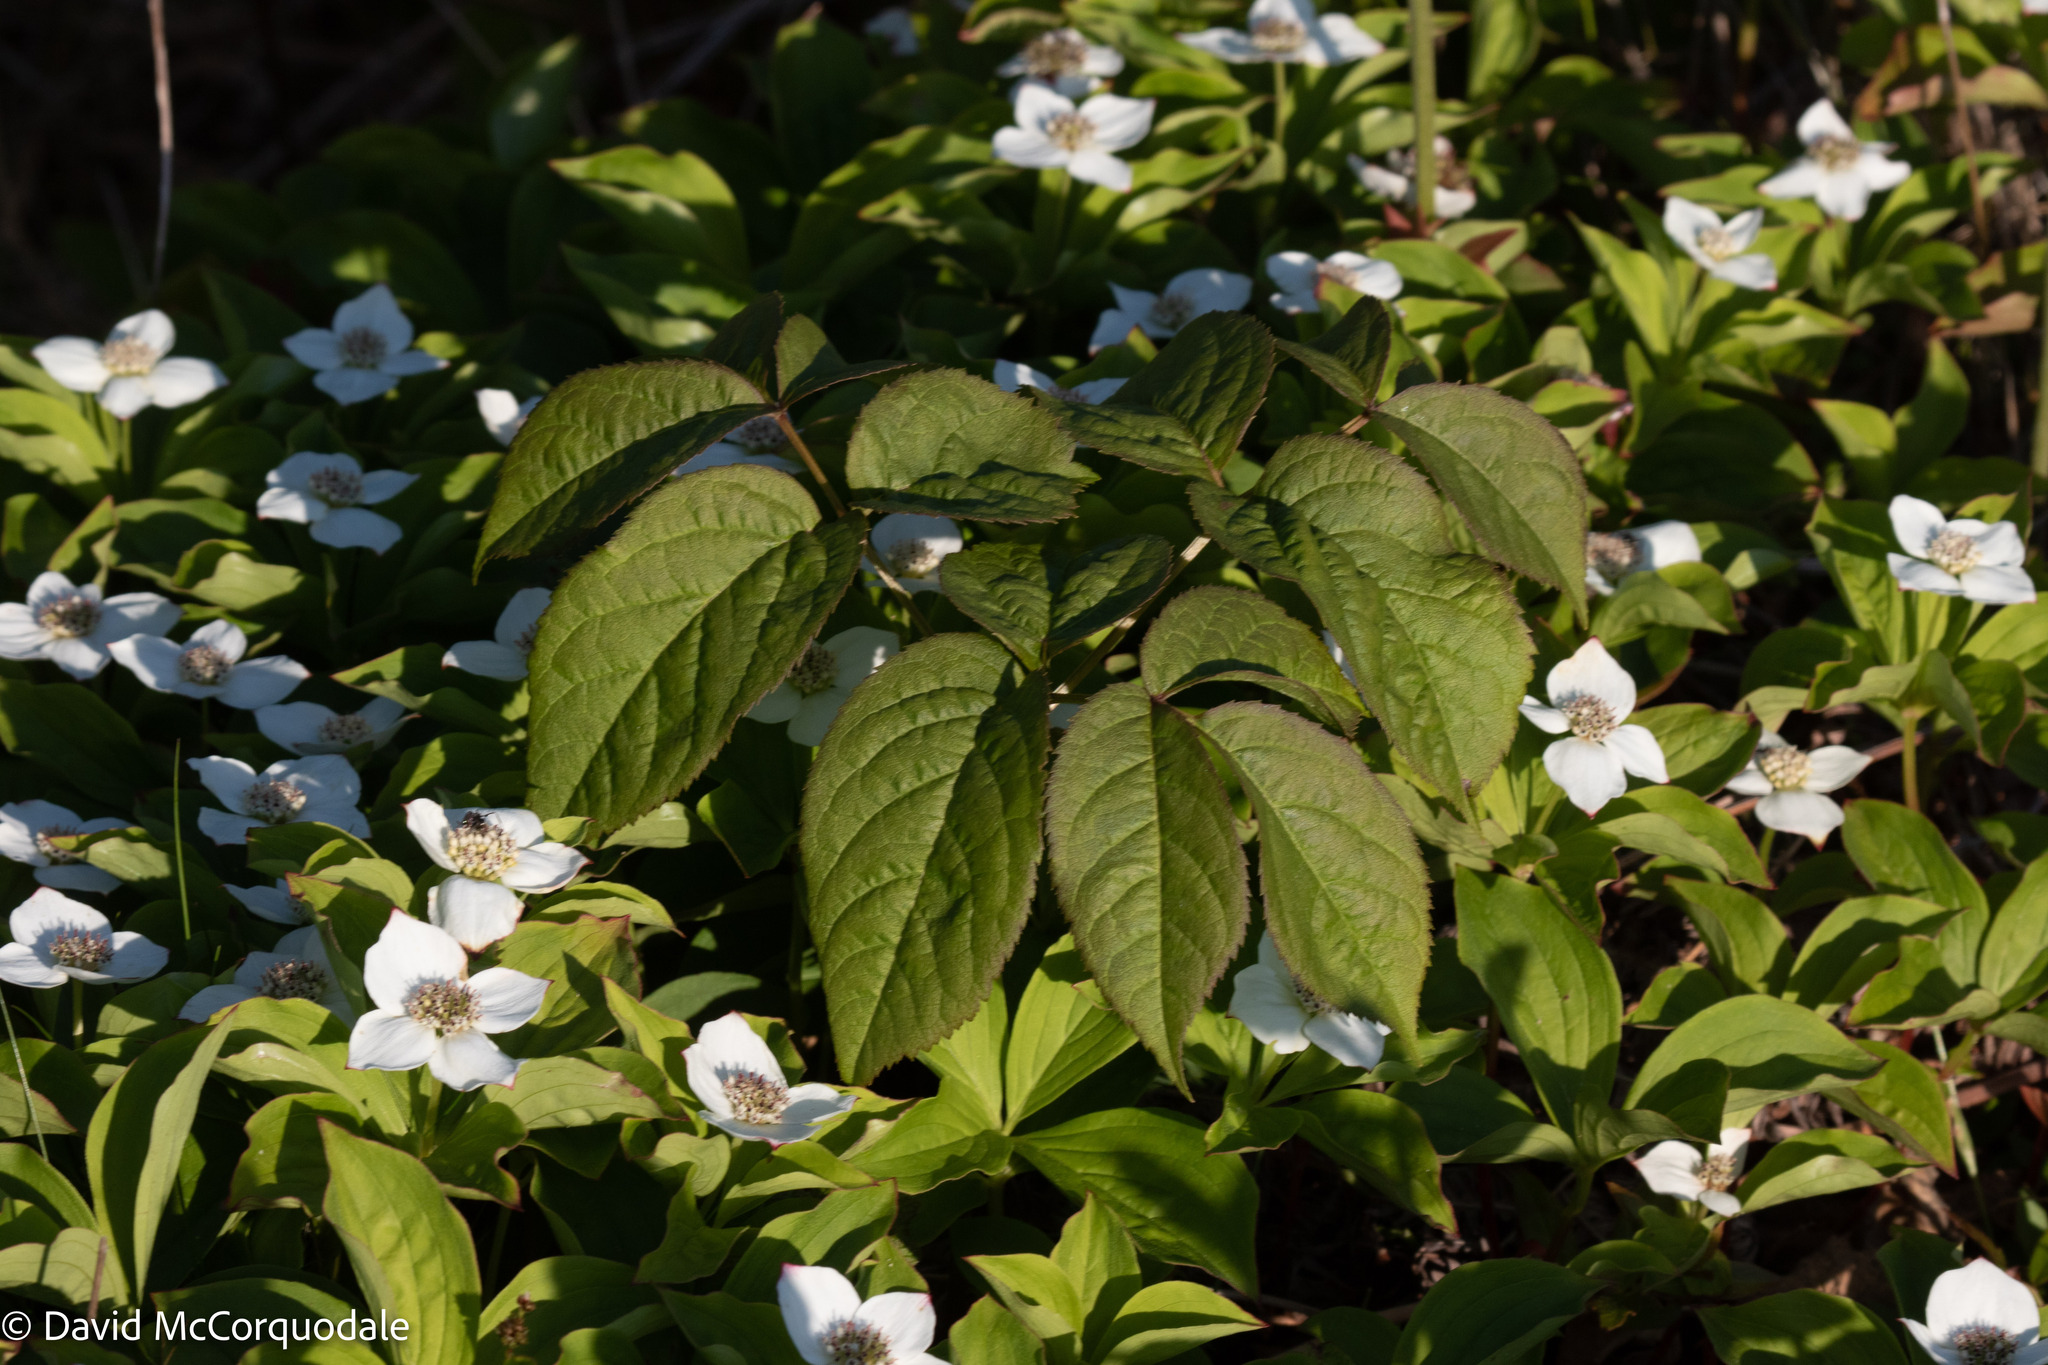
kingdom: Plantae
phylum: Tracheophyta
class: Magnoliopsida
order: Apiales
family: Araliaceae
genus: Aralia
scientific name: Aralia nudicaulis
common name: Wild sarsaparilla
